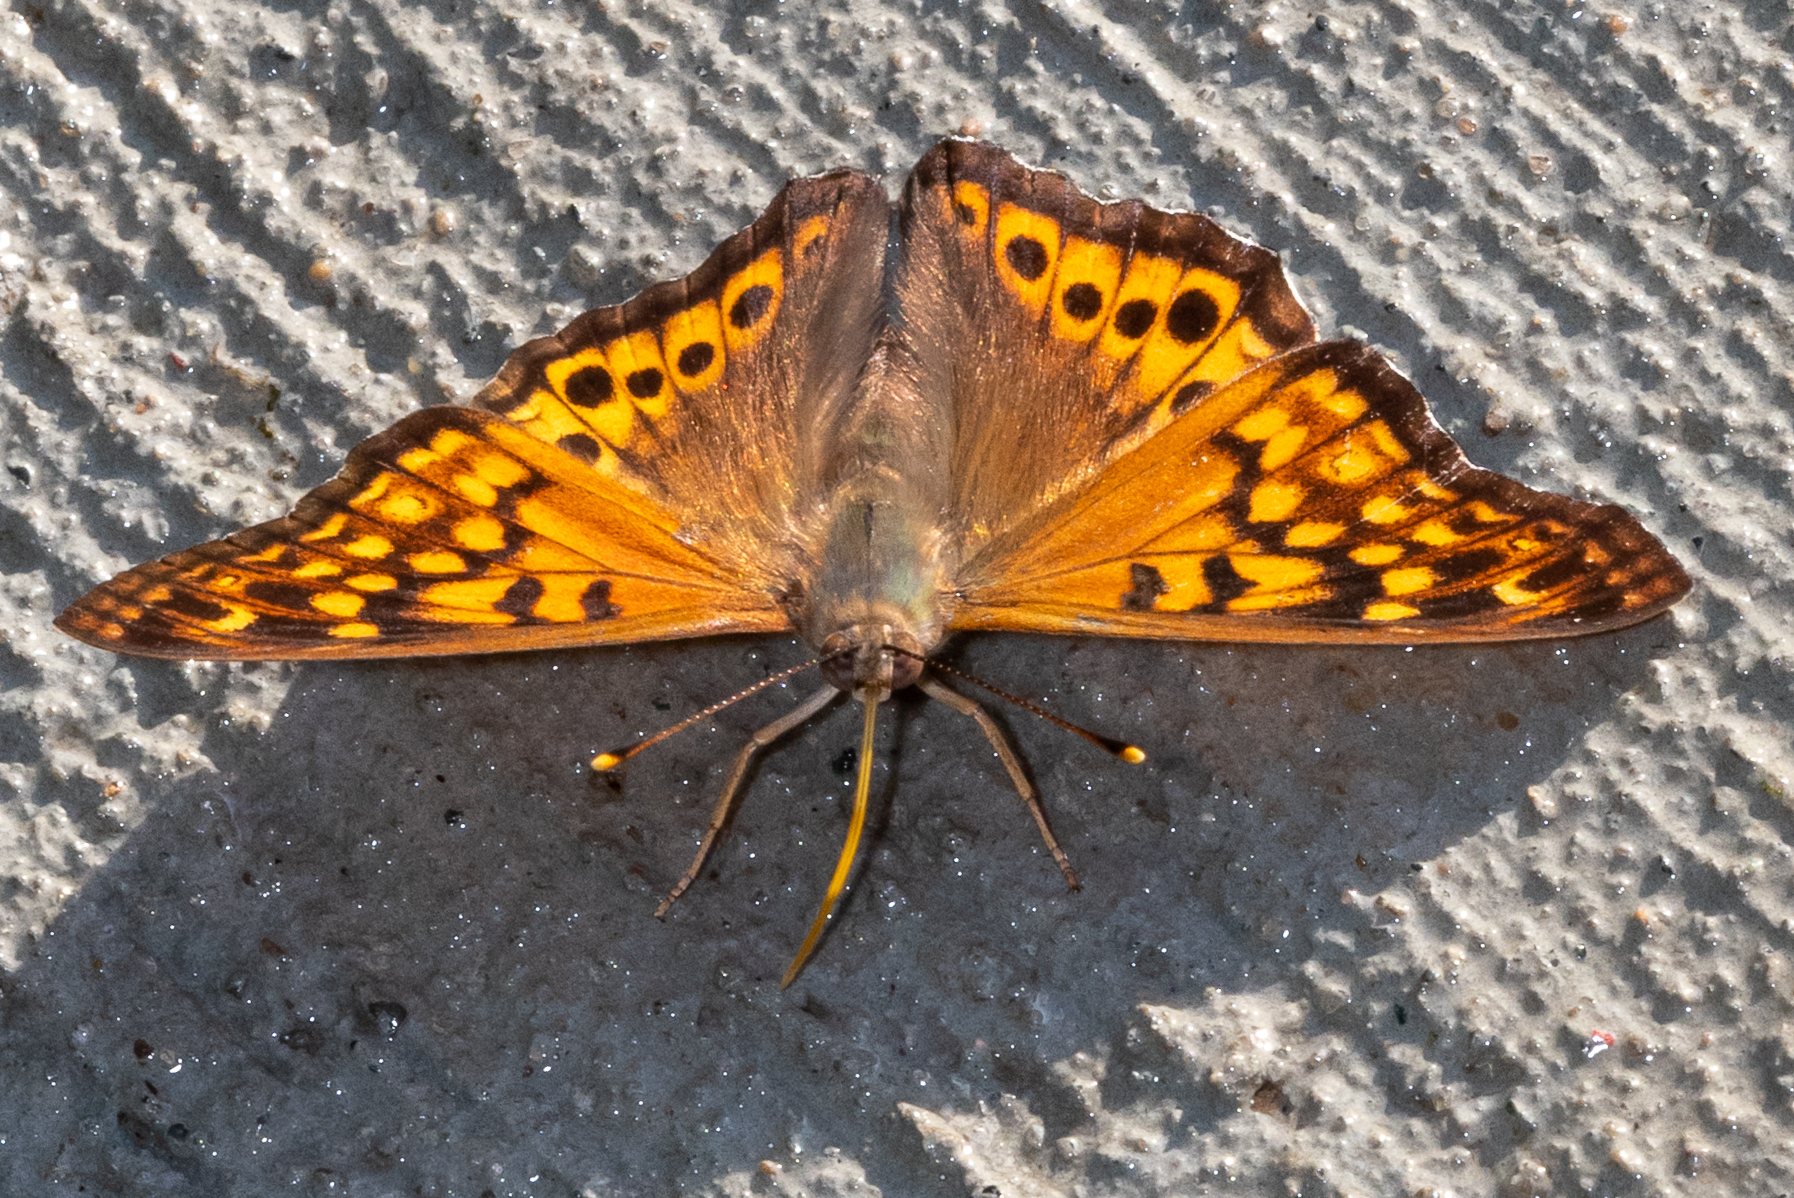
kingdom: Animalia
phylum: Arthropoda
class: Insecta
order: Lepidoptera
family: Nymphalidae
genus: Asterocampa
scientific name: Asterocampa clyton
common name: Tawny emperor
